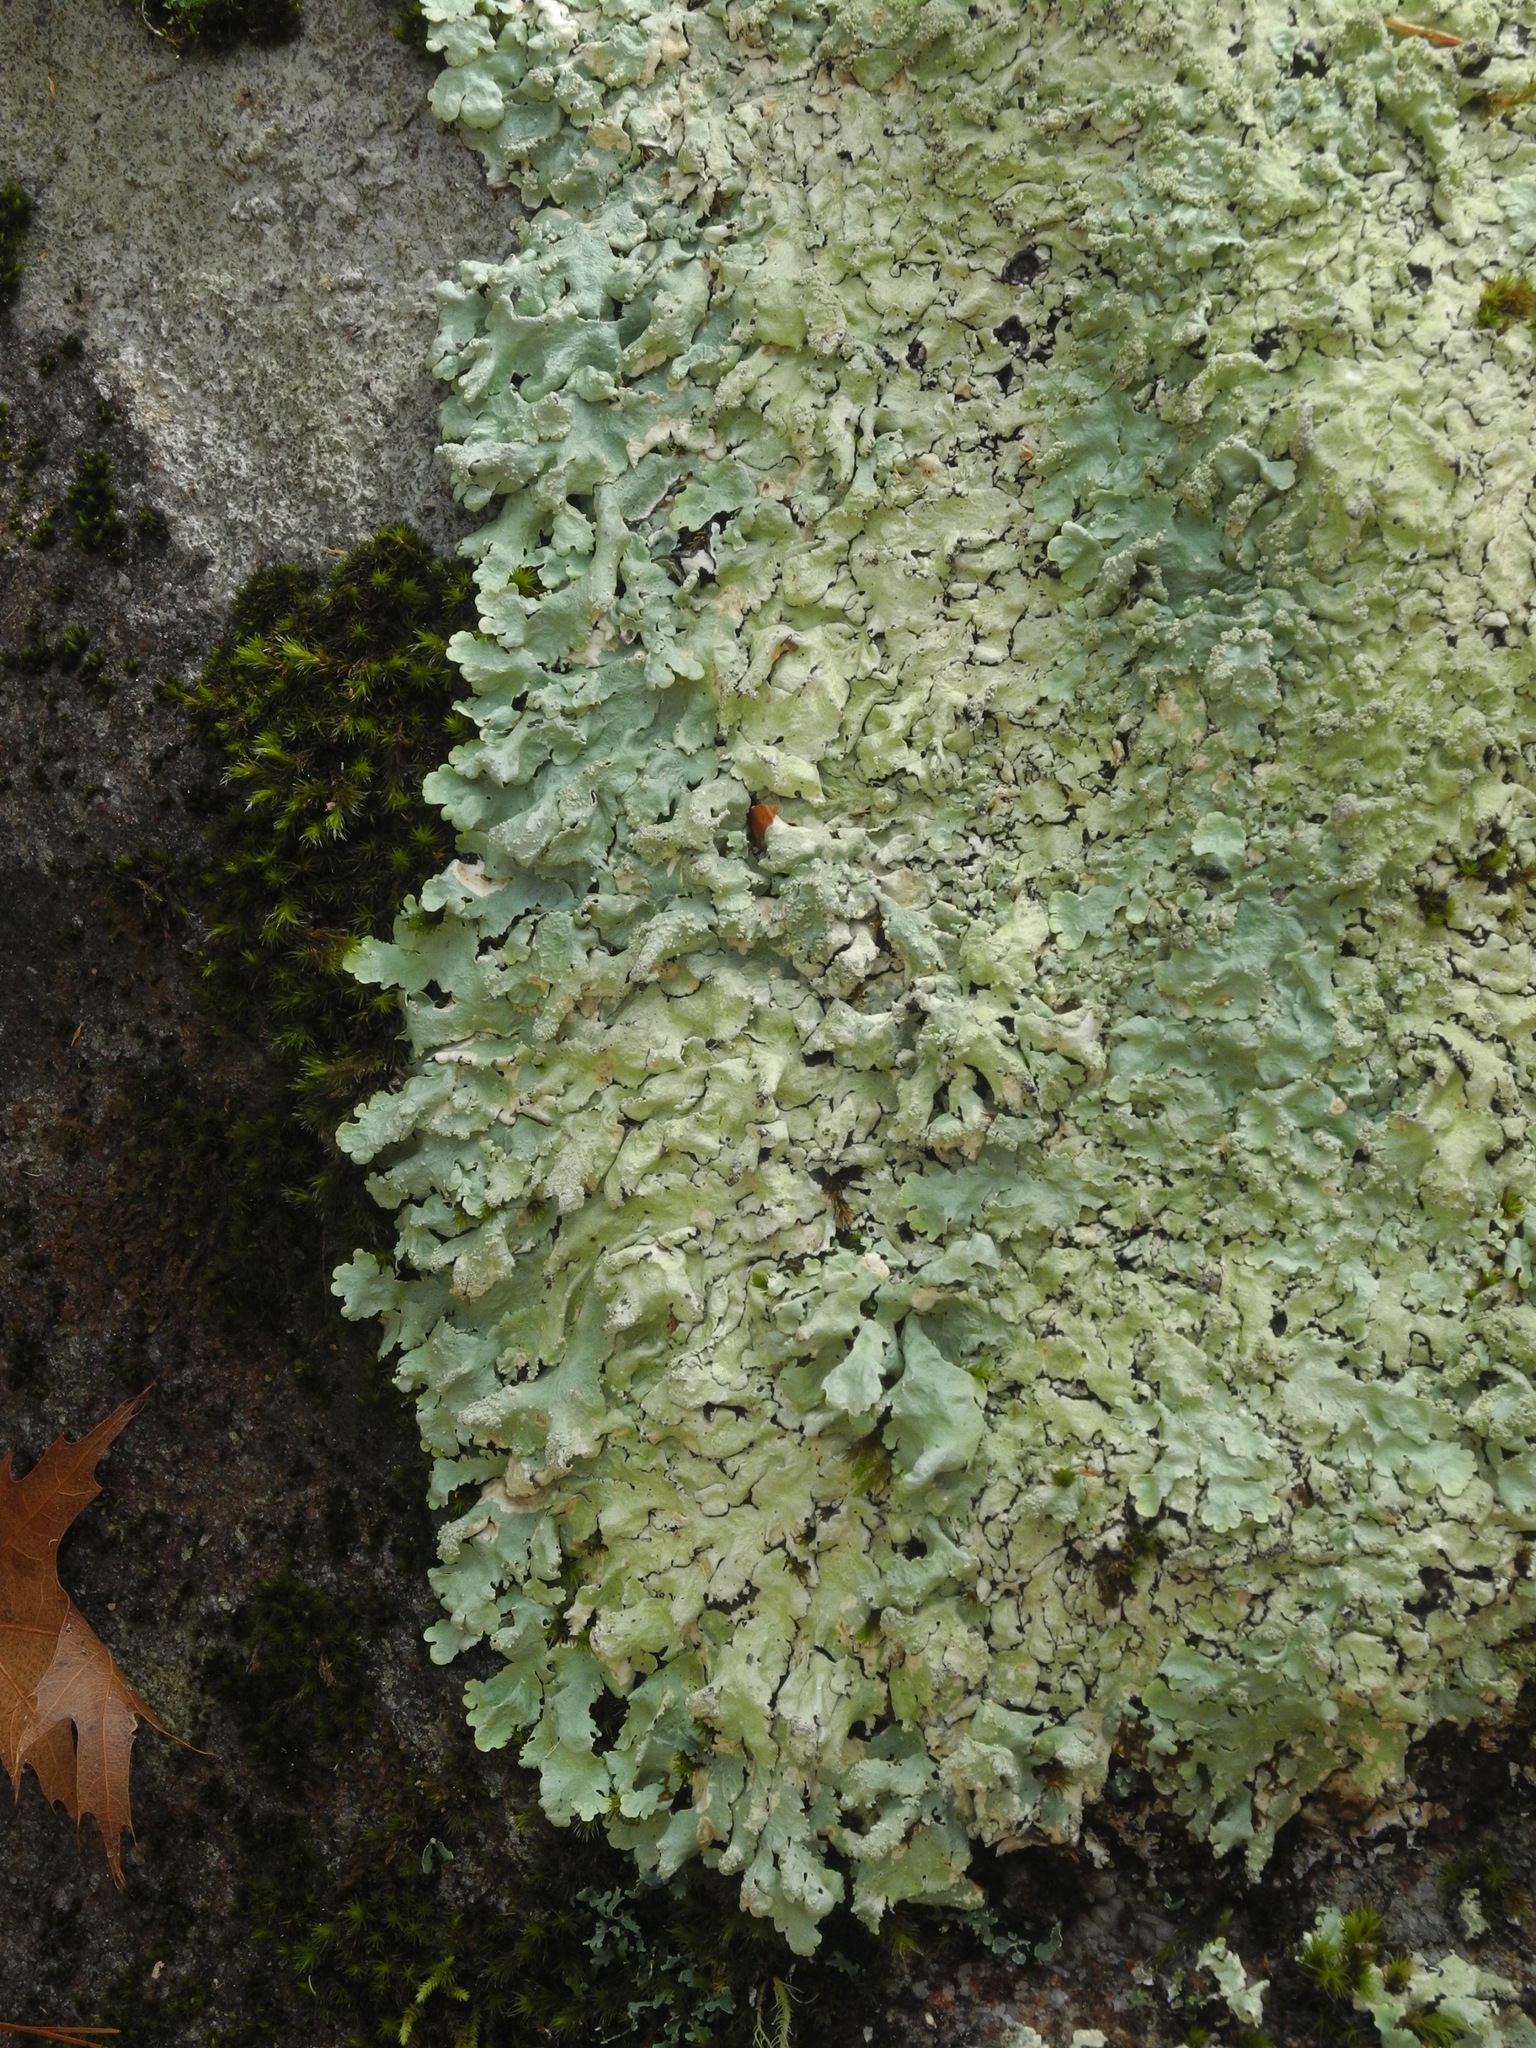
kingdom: Fungi
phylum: Ascomycota
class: Lecanoromycetes
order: Lecanorales
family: Parmeliaceae
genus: Flavoparmelia
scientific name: Flavoparmelia baltimorensis
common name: Rock greenshield
